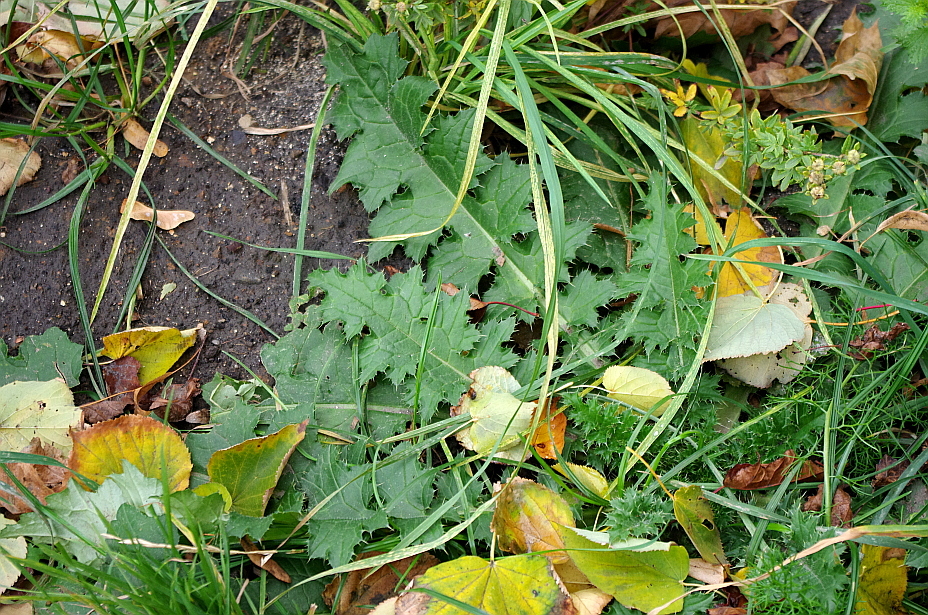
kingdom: Plantae
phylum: Tracheophyta
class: Magnoliopsida
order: Asterales
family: Asteraceae
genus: Carduus
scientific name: Carduus crispus
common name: Welted thistle
